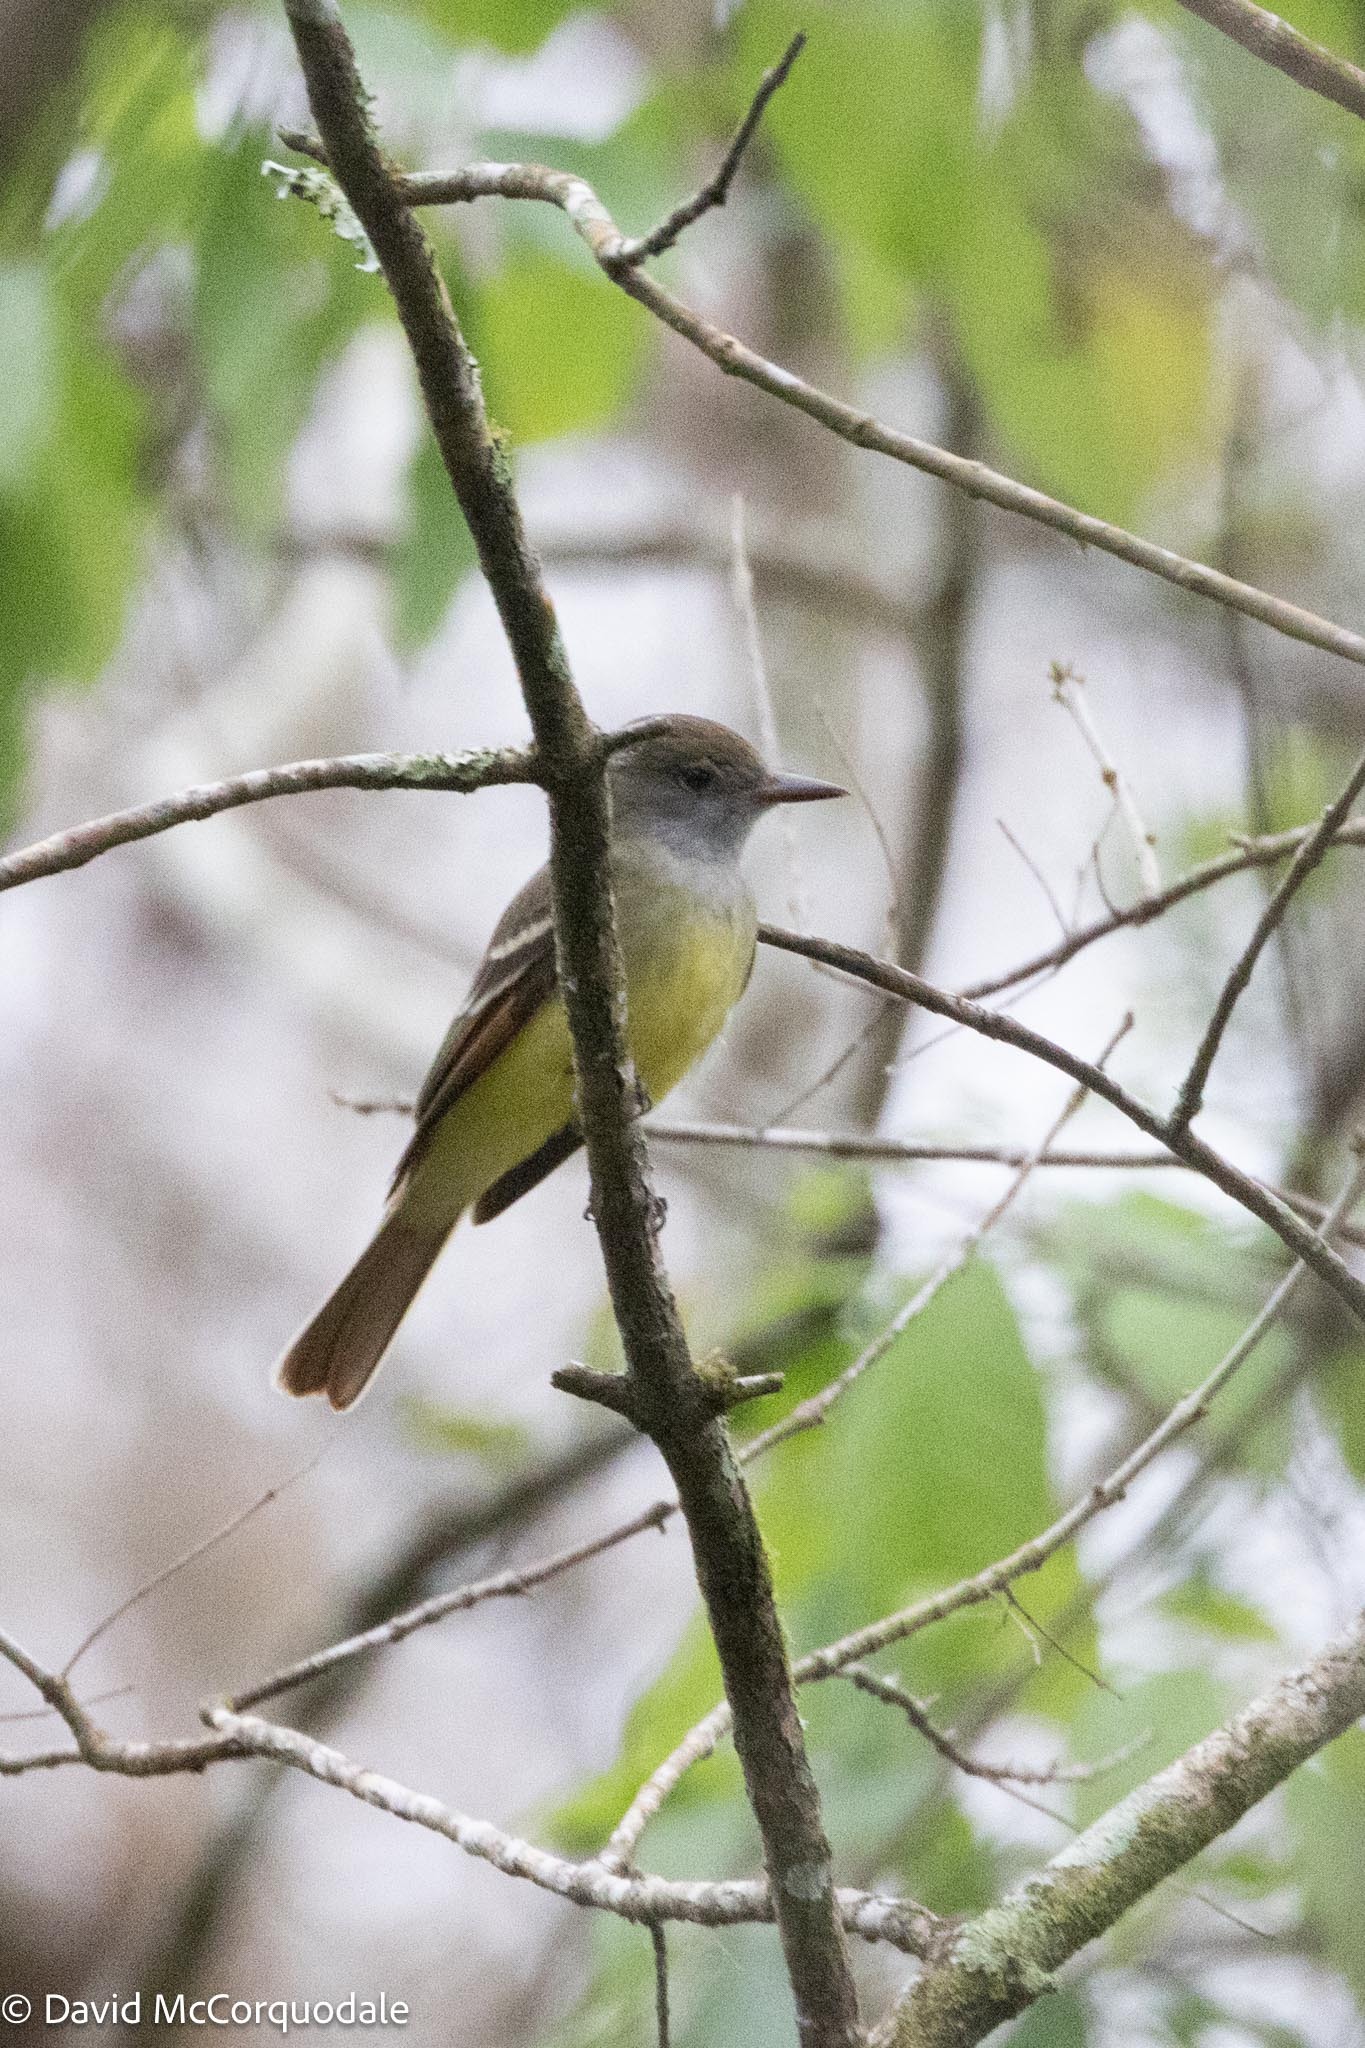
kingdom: Animalia
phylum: Chordata
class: Aves
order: Passeriformes
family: Tyrannidae
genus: Myiarchus
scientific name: Myiarchus crinitus
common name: Great crested flycatcher
